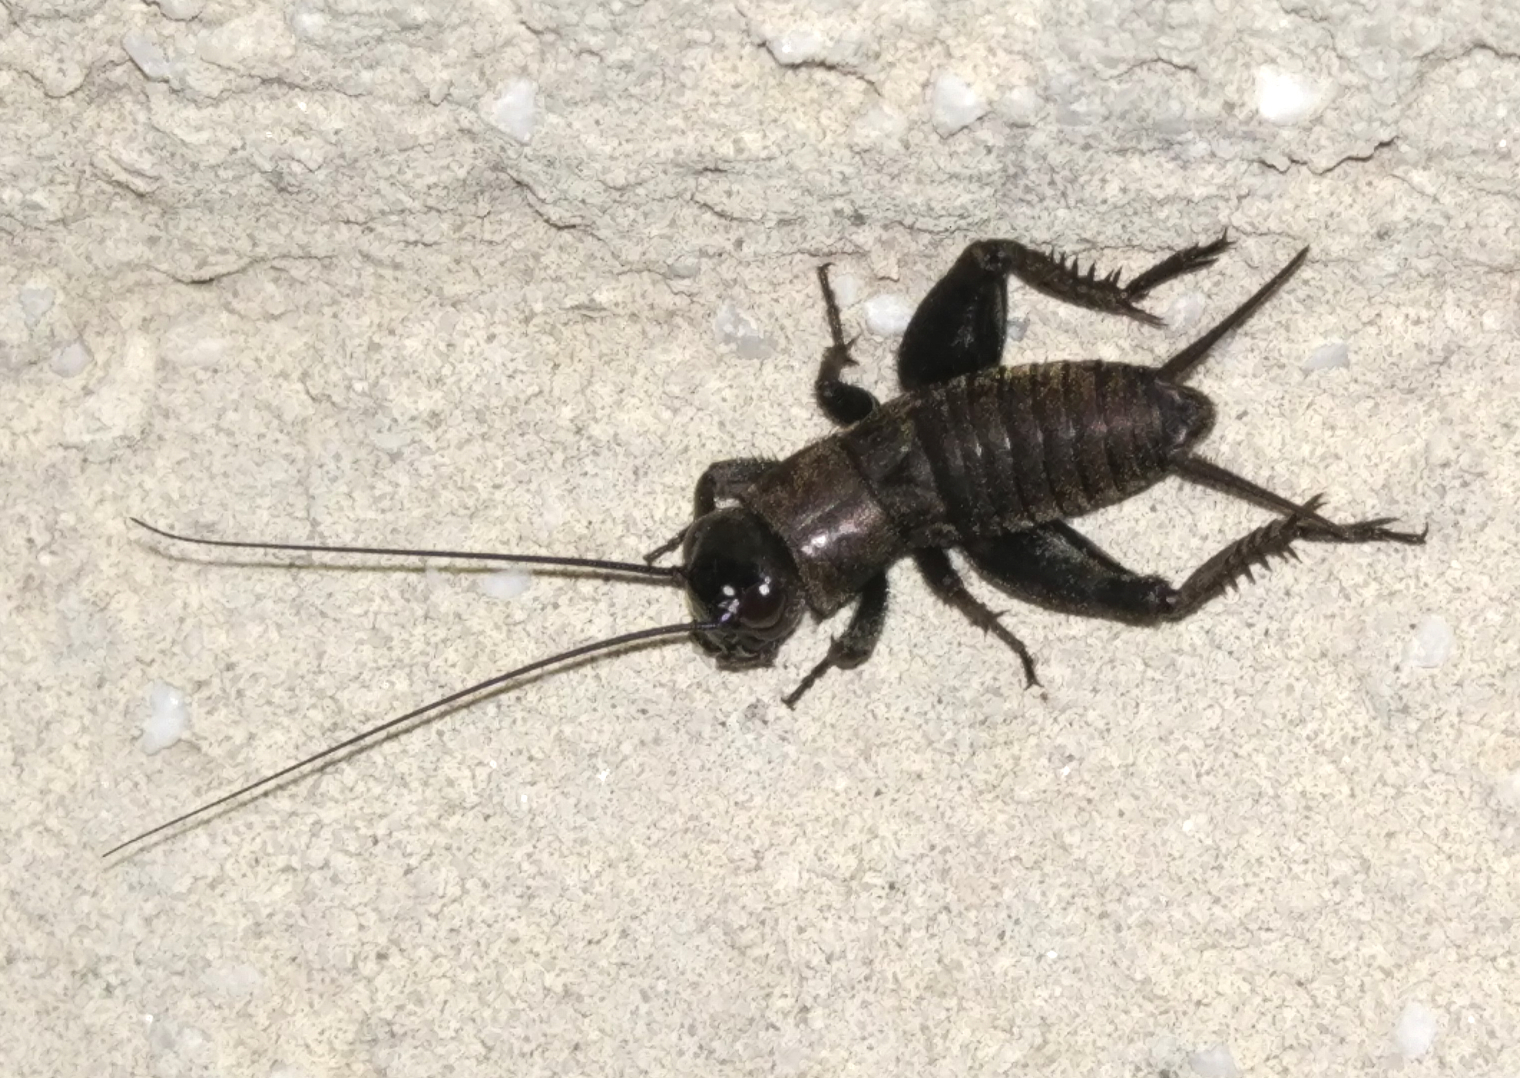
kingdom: Animalia
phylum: Arthropoda
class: Insecta
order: Orthoptera
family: Gryllidae
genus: Melanogryllus
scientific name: Melanogryllus desertus
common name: Desert cricket
